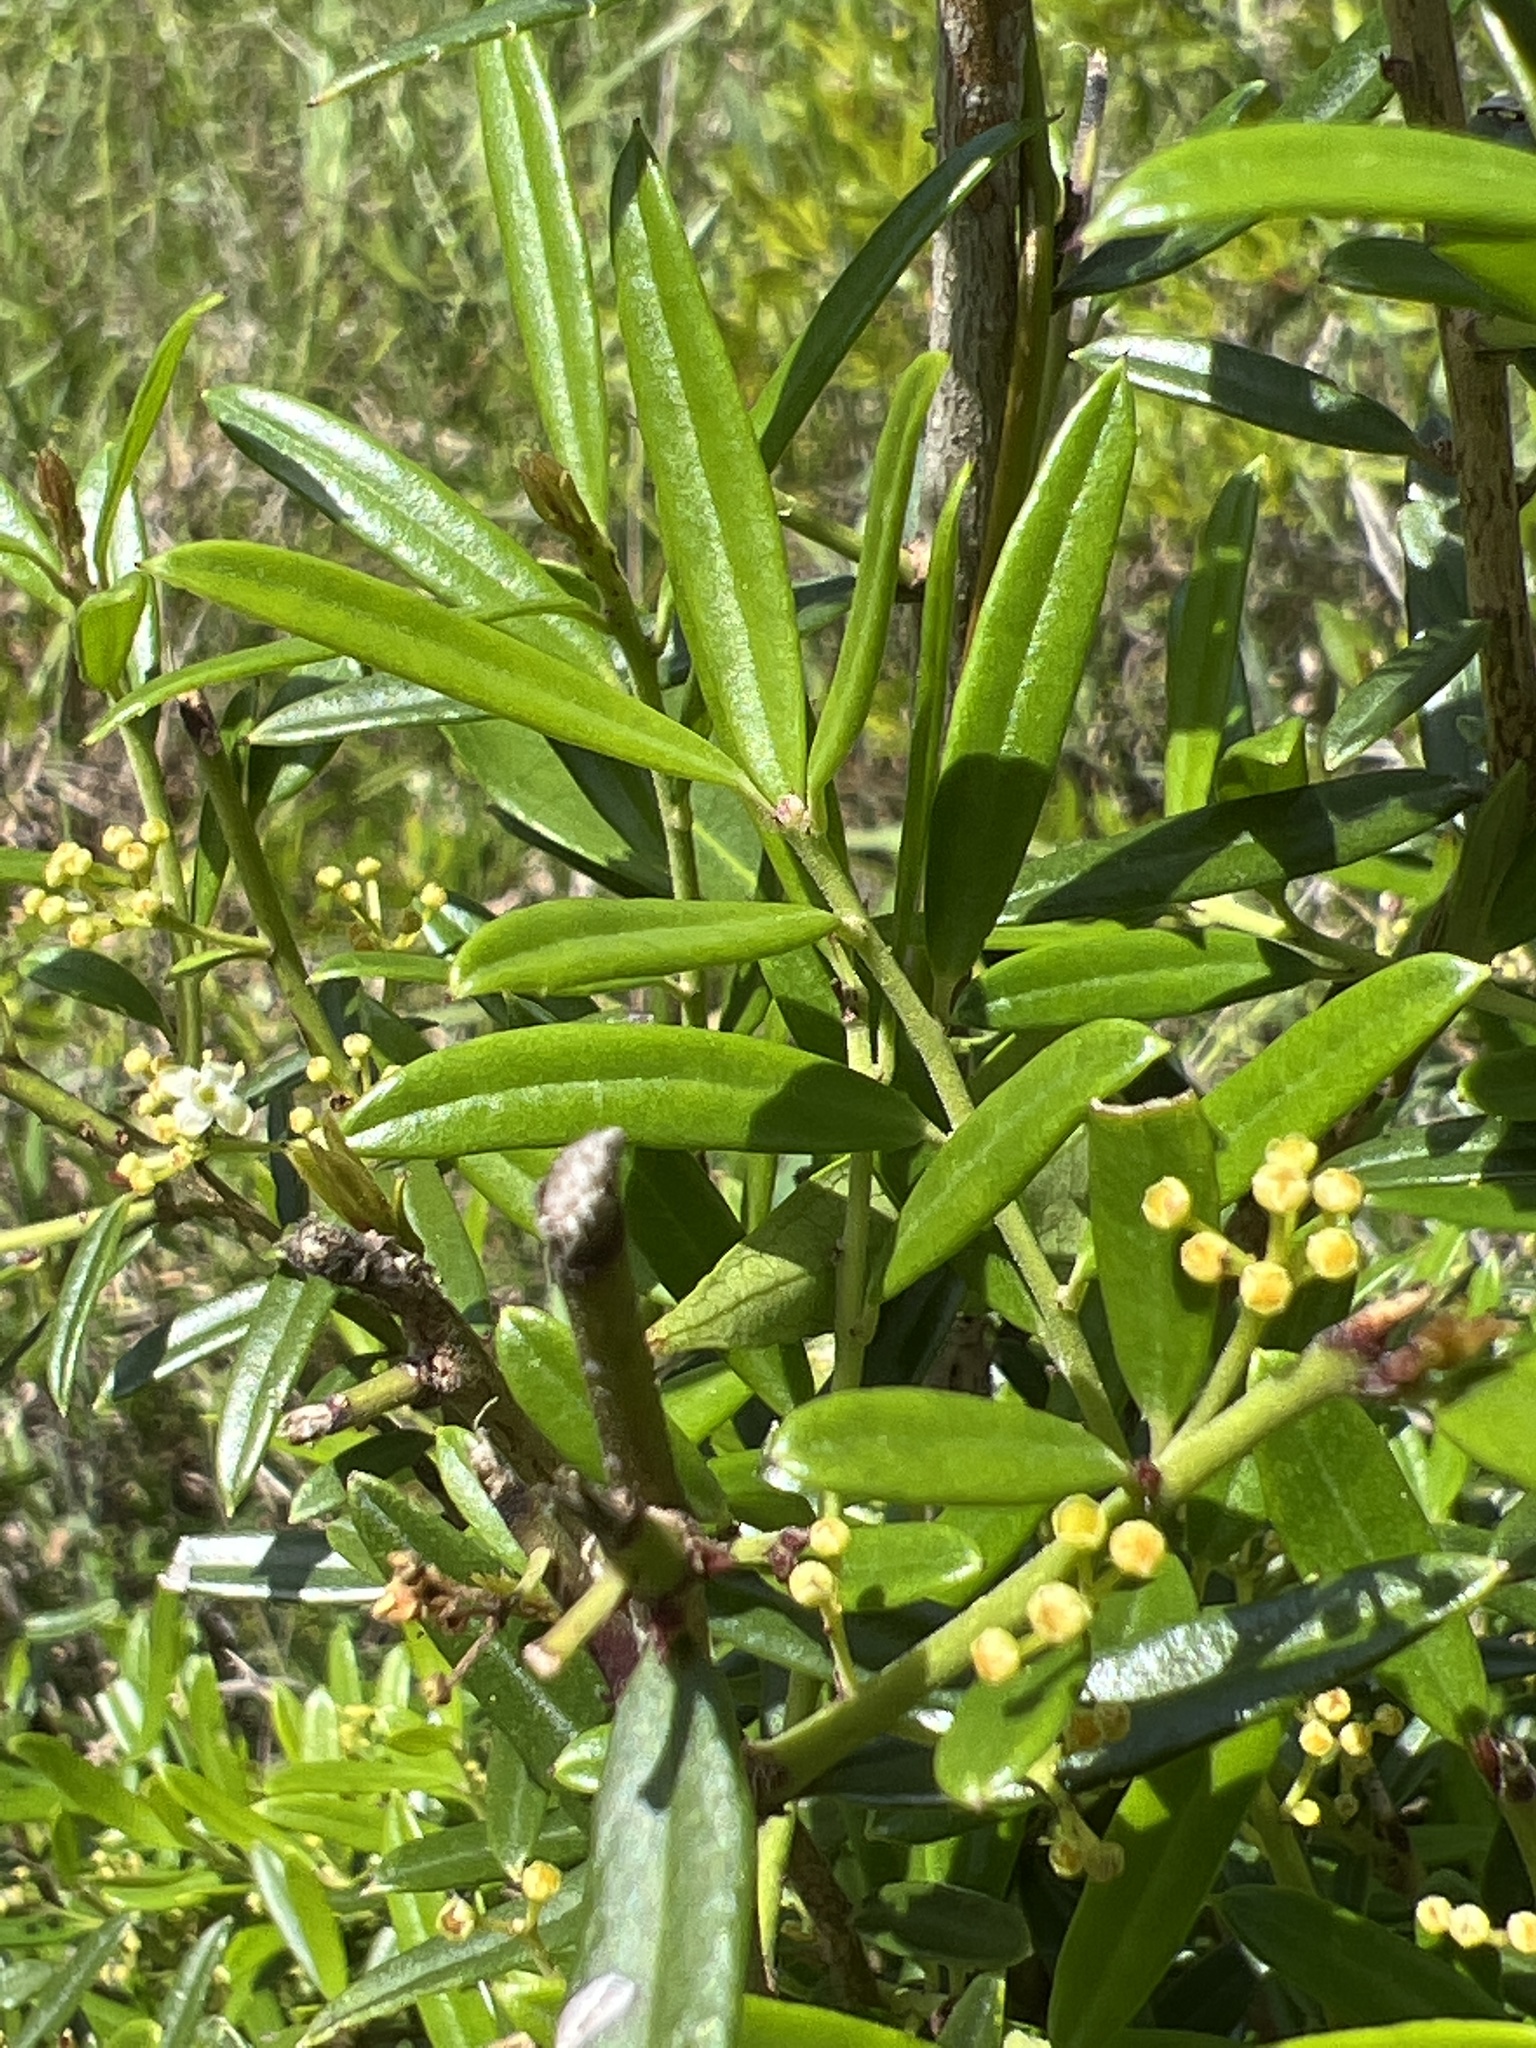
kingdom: Plantae
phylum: Tracheophyta
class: Magnoliopsida
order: Aquifoliales
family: Aquifoliaceae
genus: Ilex
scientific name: Ilex myrtifolia
